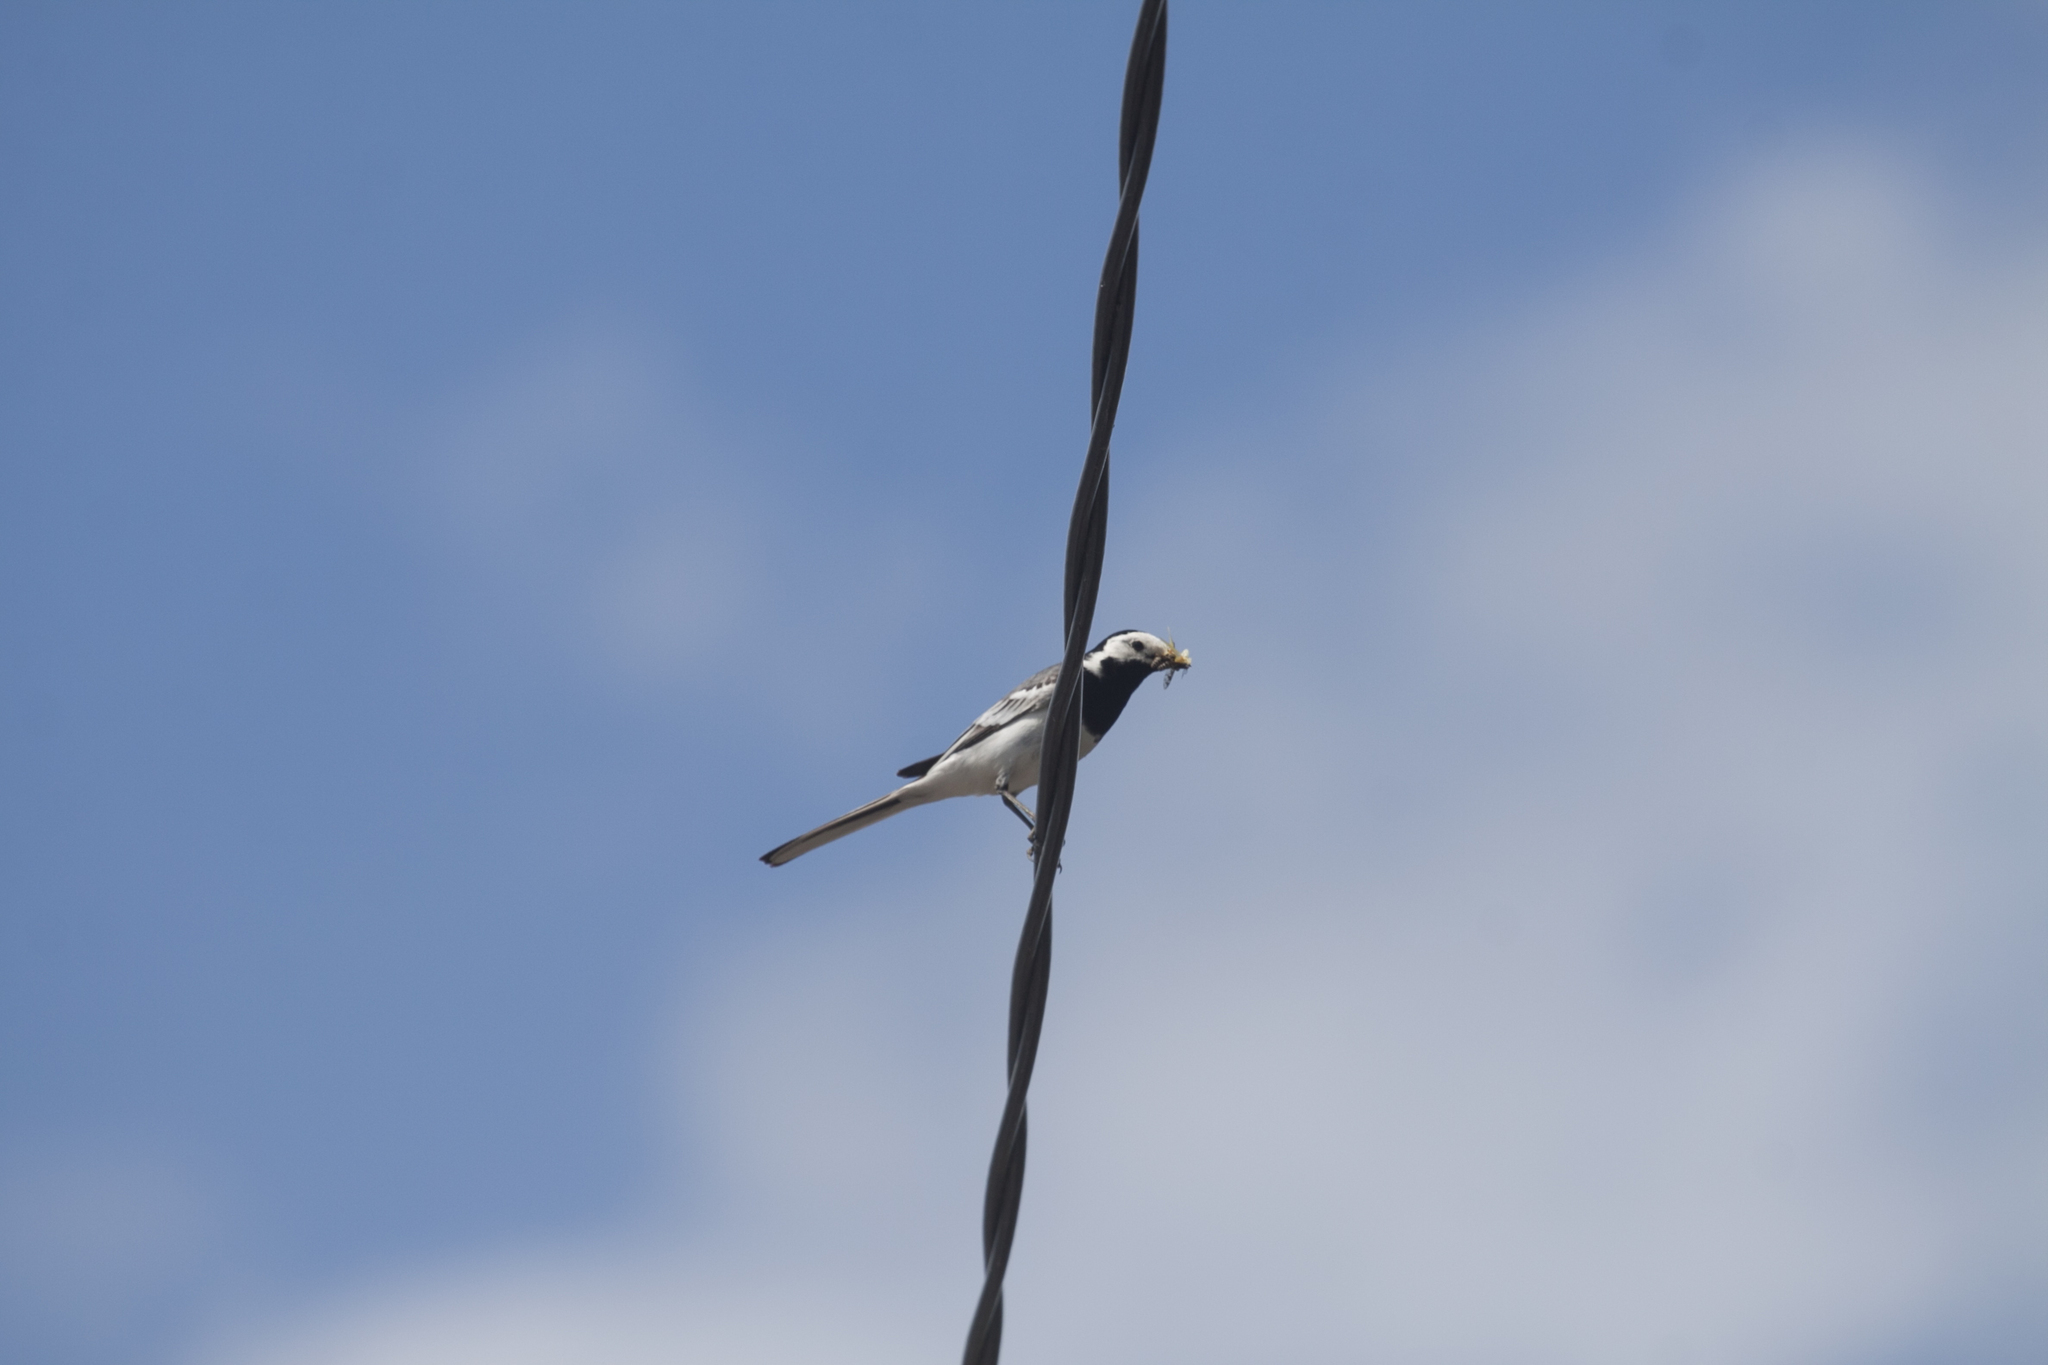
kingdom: Animalia
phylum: Chordata
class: Aves
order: Passeriformes
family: Motacillidae
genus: Motacilla
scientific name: Motacilla alba
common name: White wagtail
